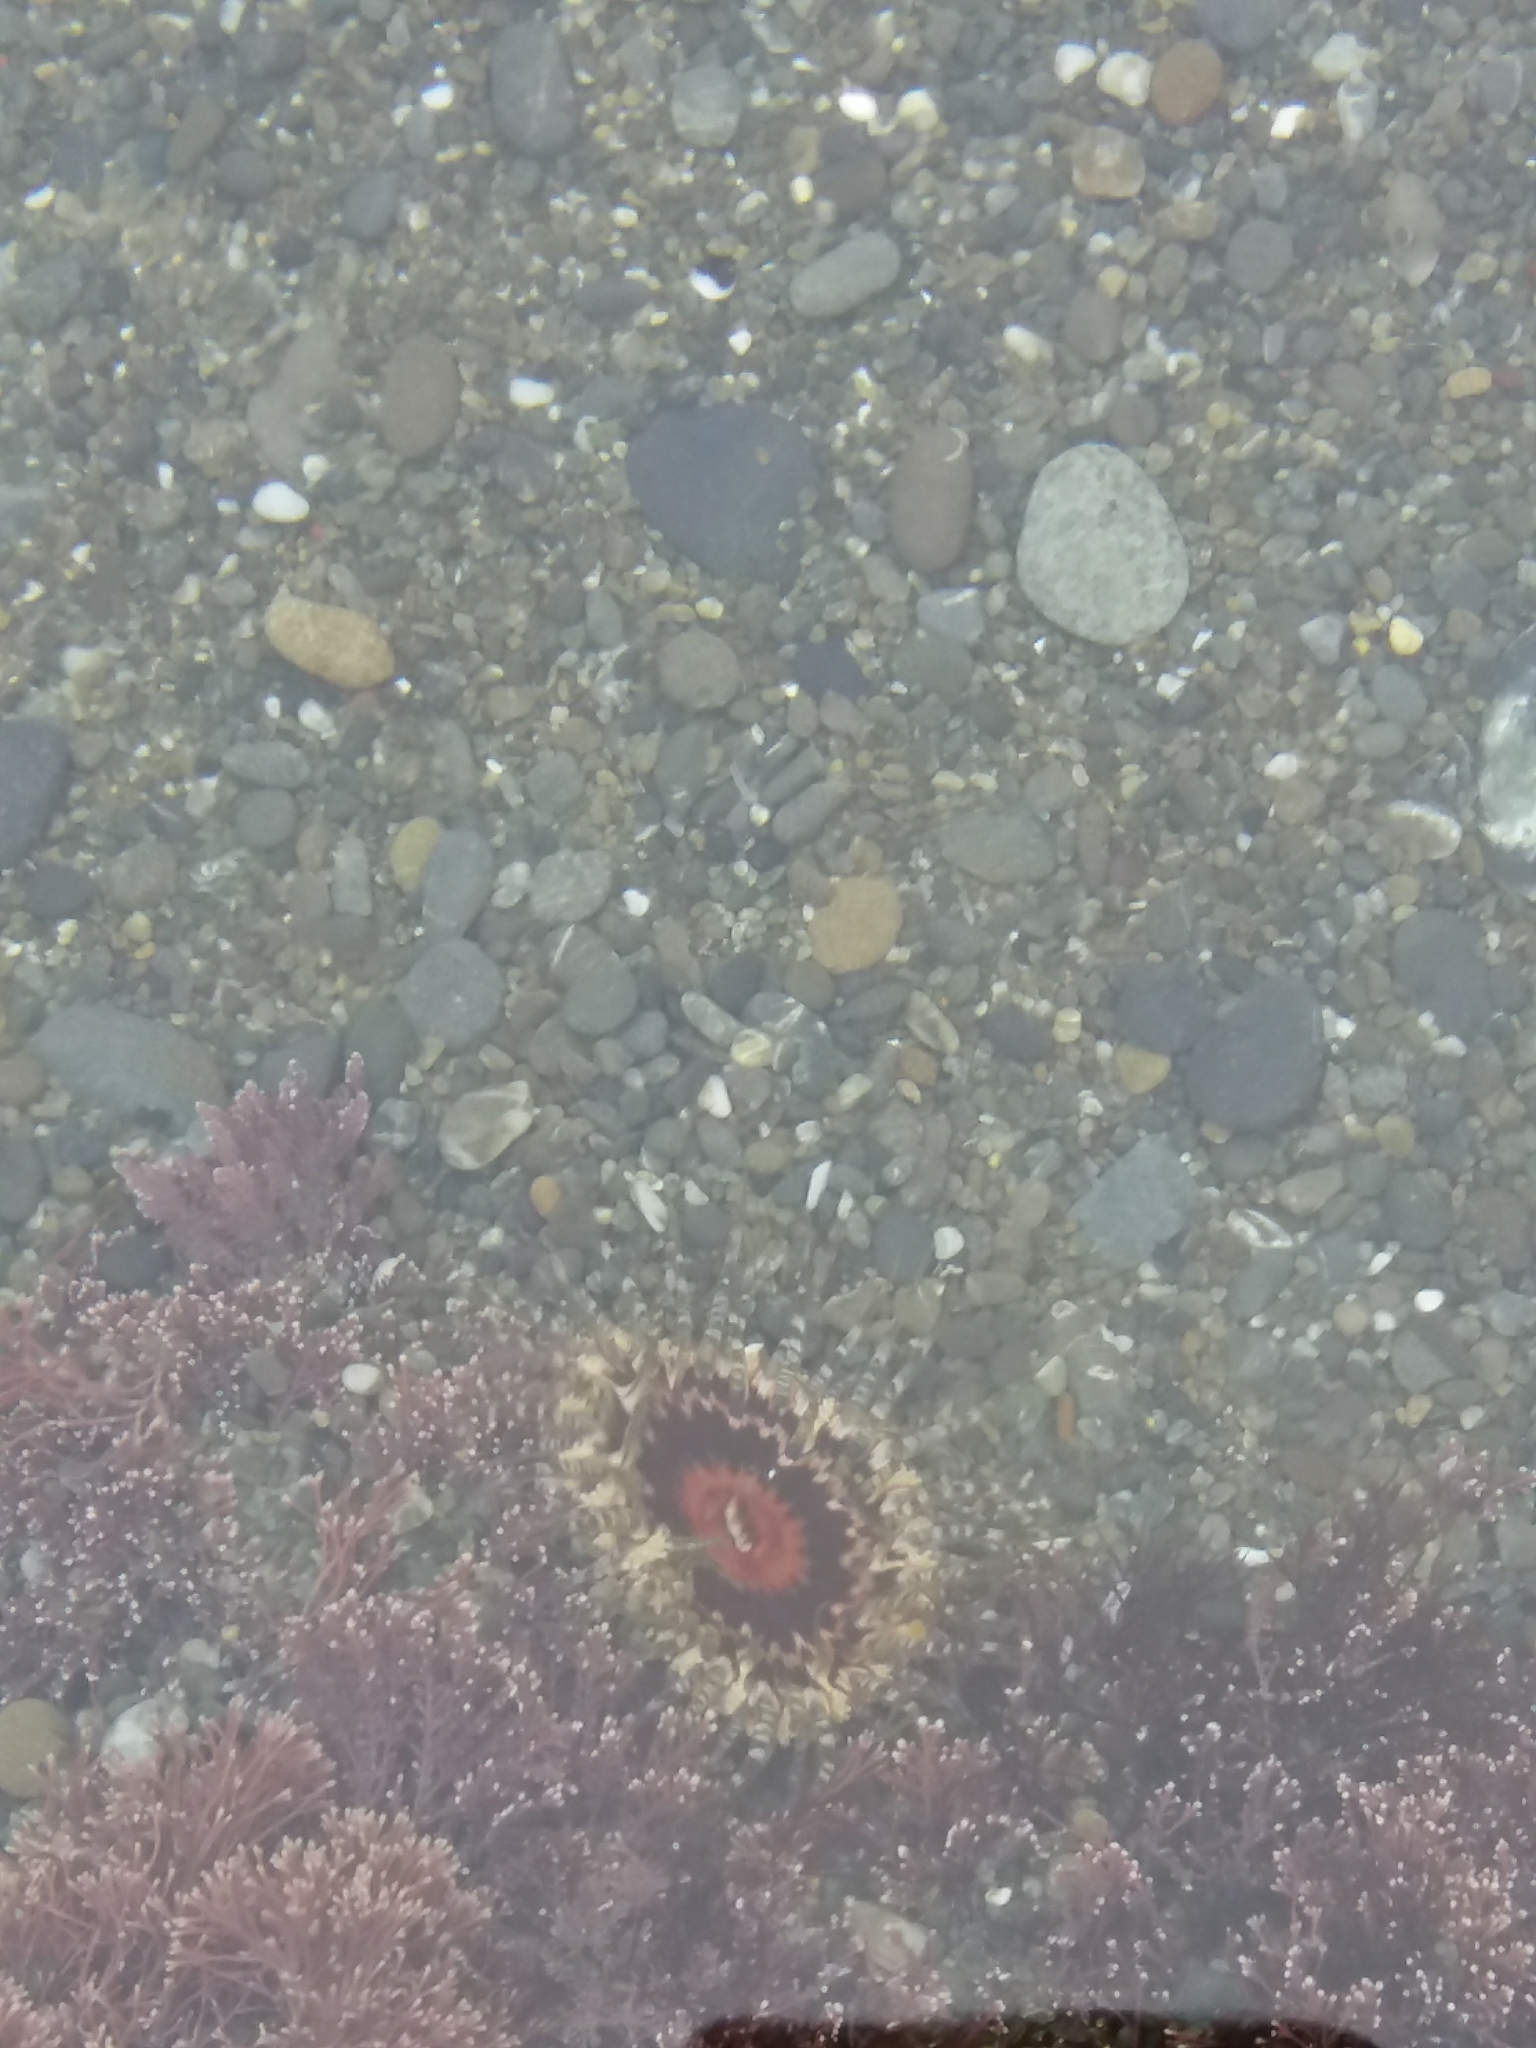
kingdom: Animalia
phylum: Cnidaria
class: Anthozoa
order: Actiniaria
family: Actiniidae
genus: Oulactis
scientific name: Oulactis muscosa
